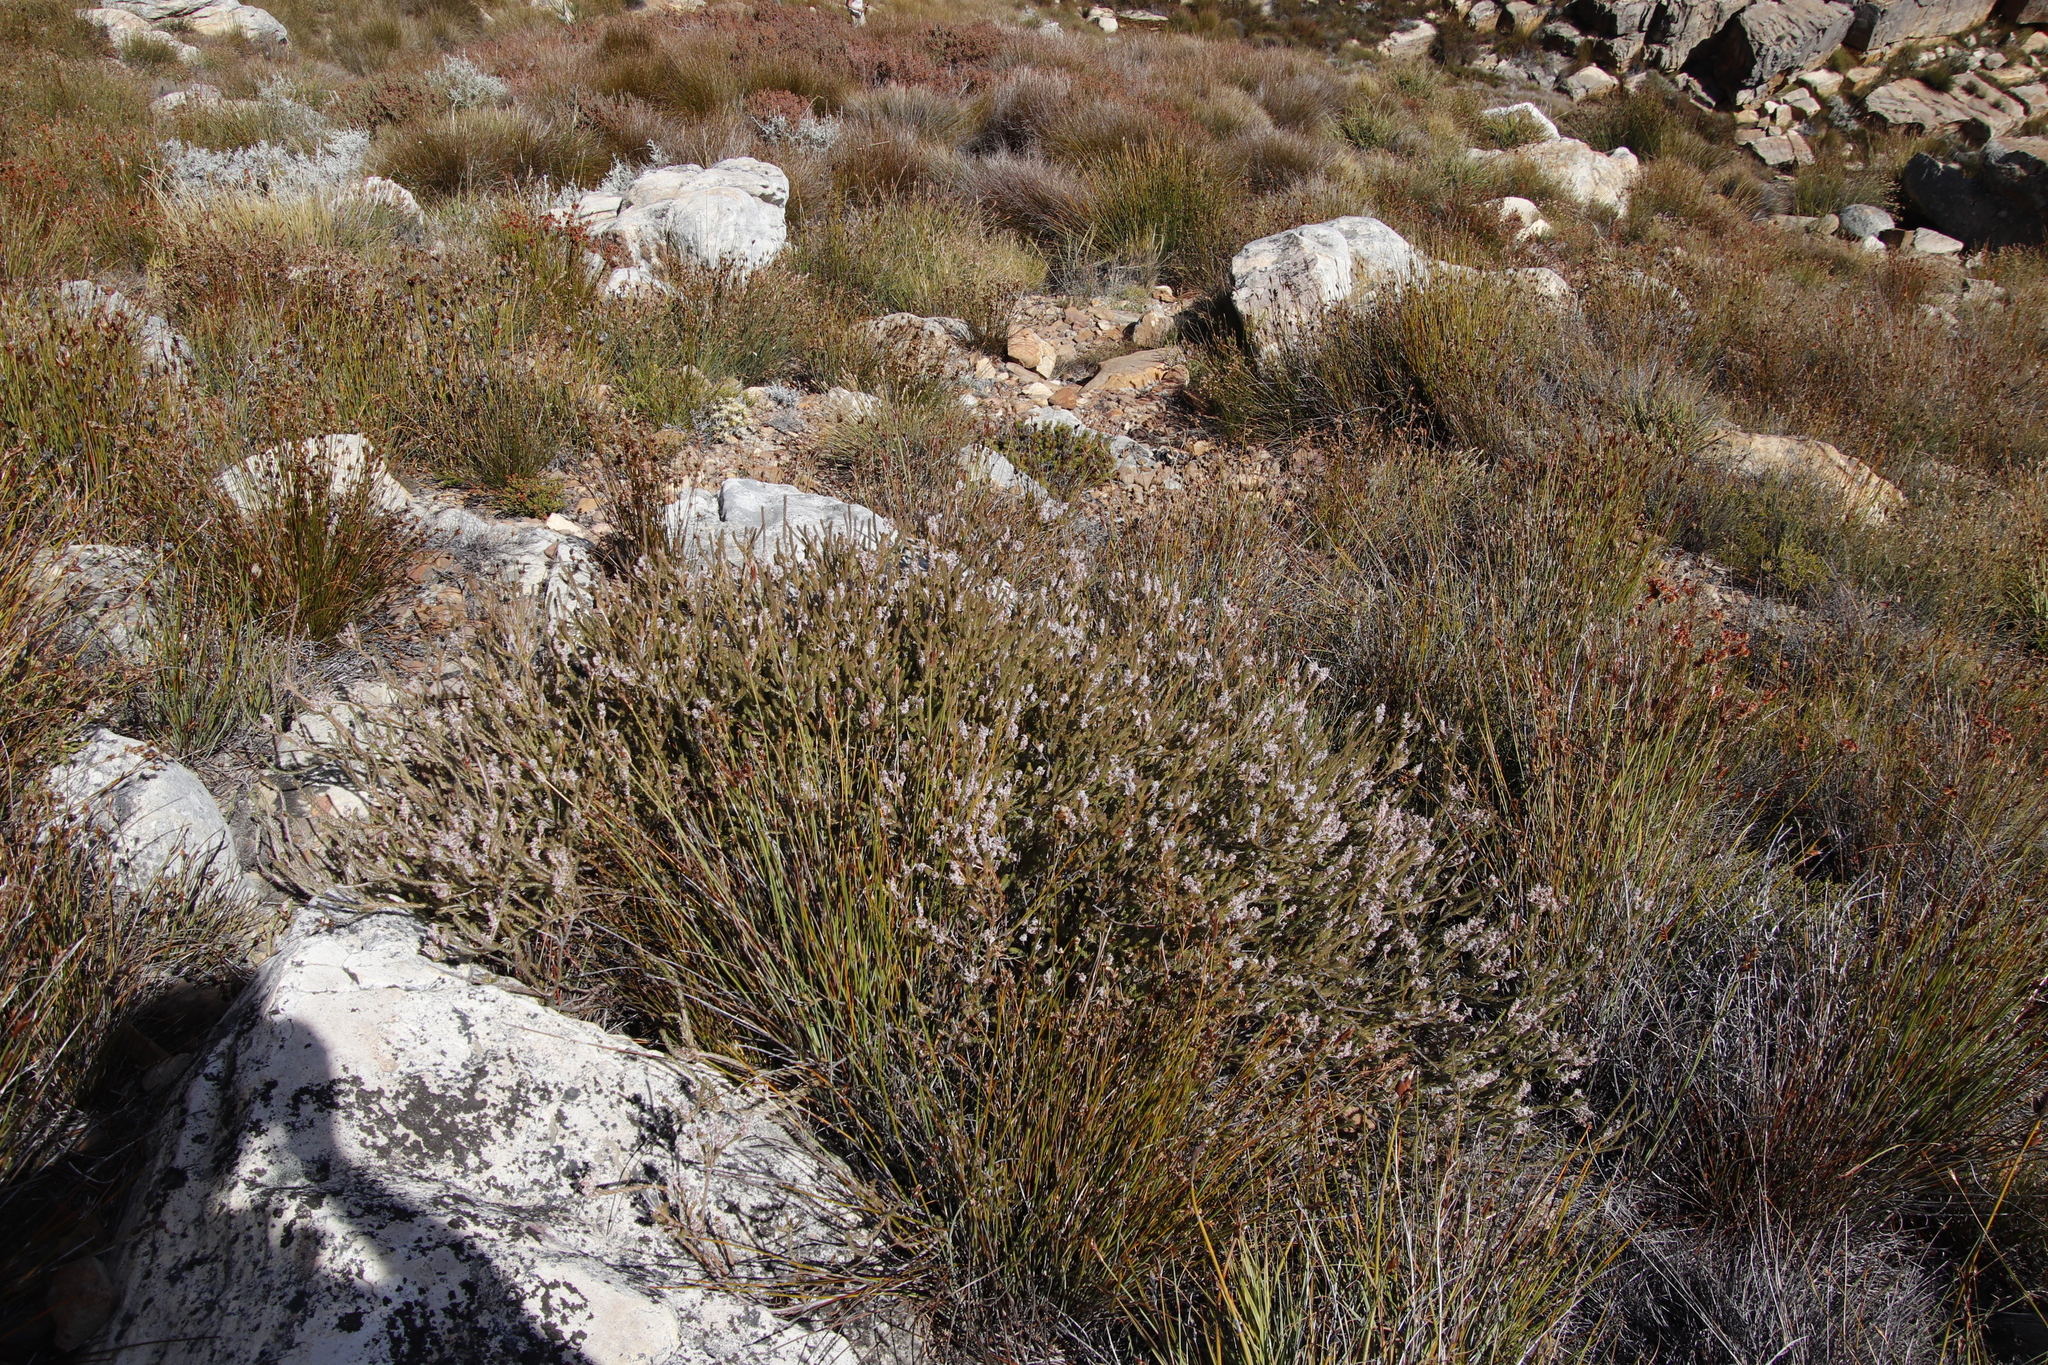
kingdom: Plantae
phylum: Tracheophyta
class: Magnoliopsida
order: Proteales
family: Proteaceae
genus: Spatalla
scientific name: Spatalla incurva
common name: Swan-head spoon
